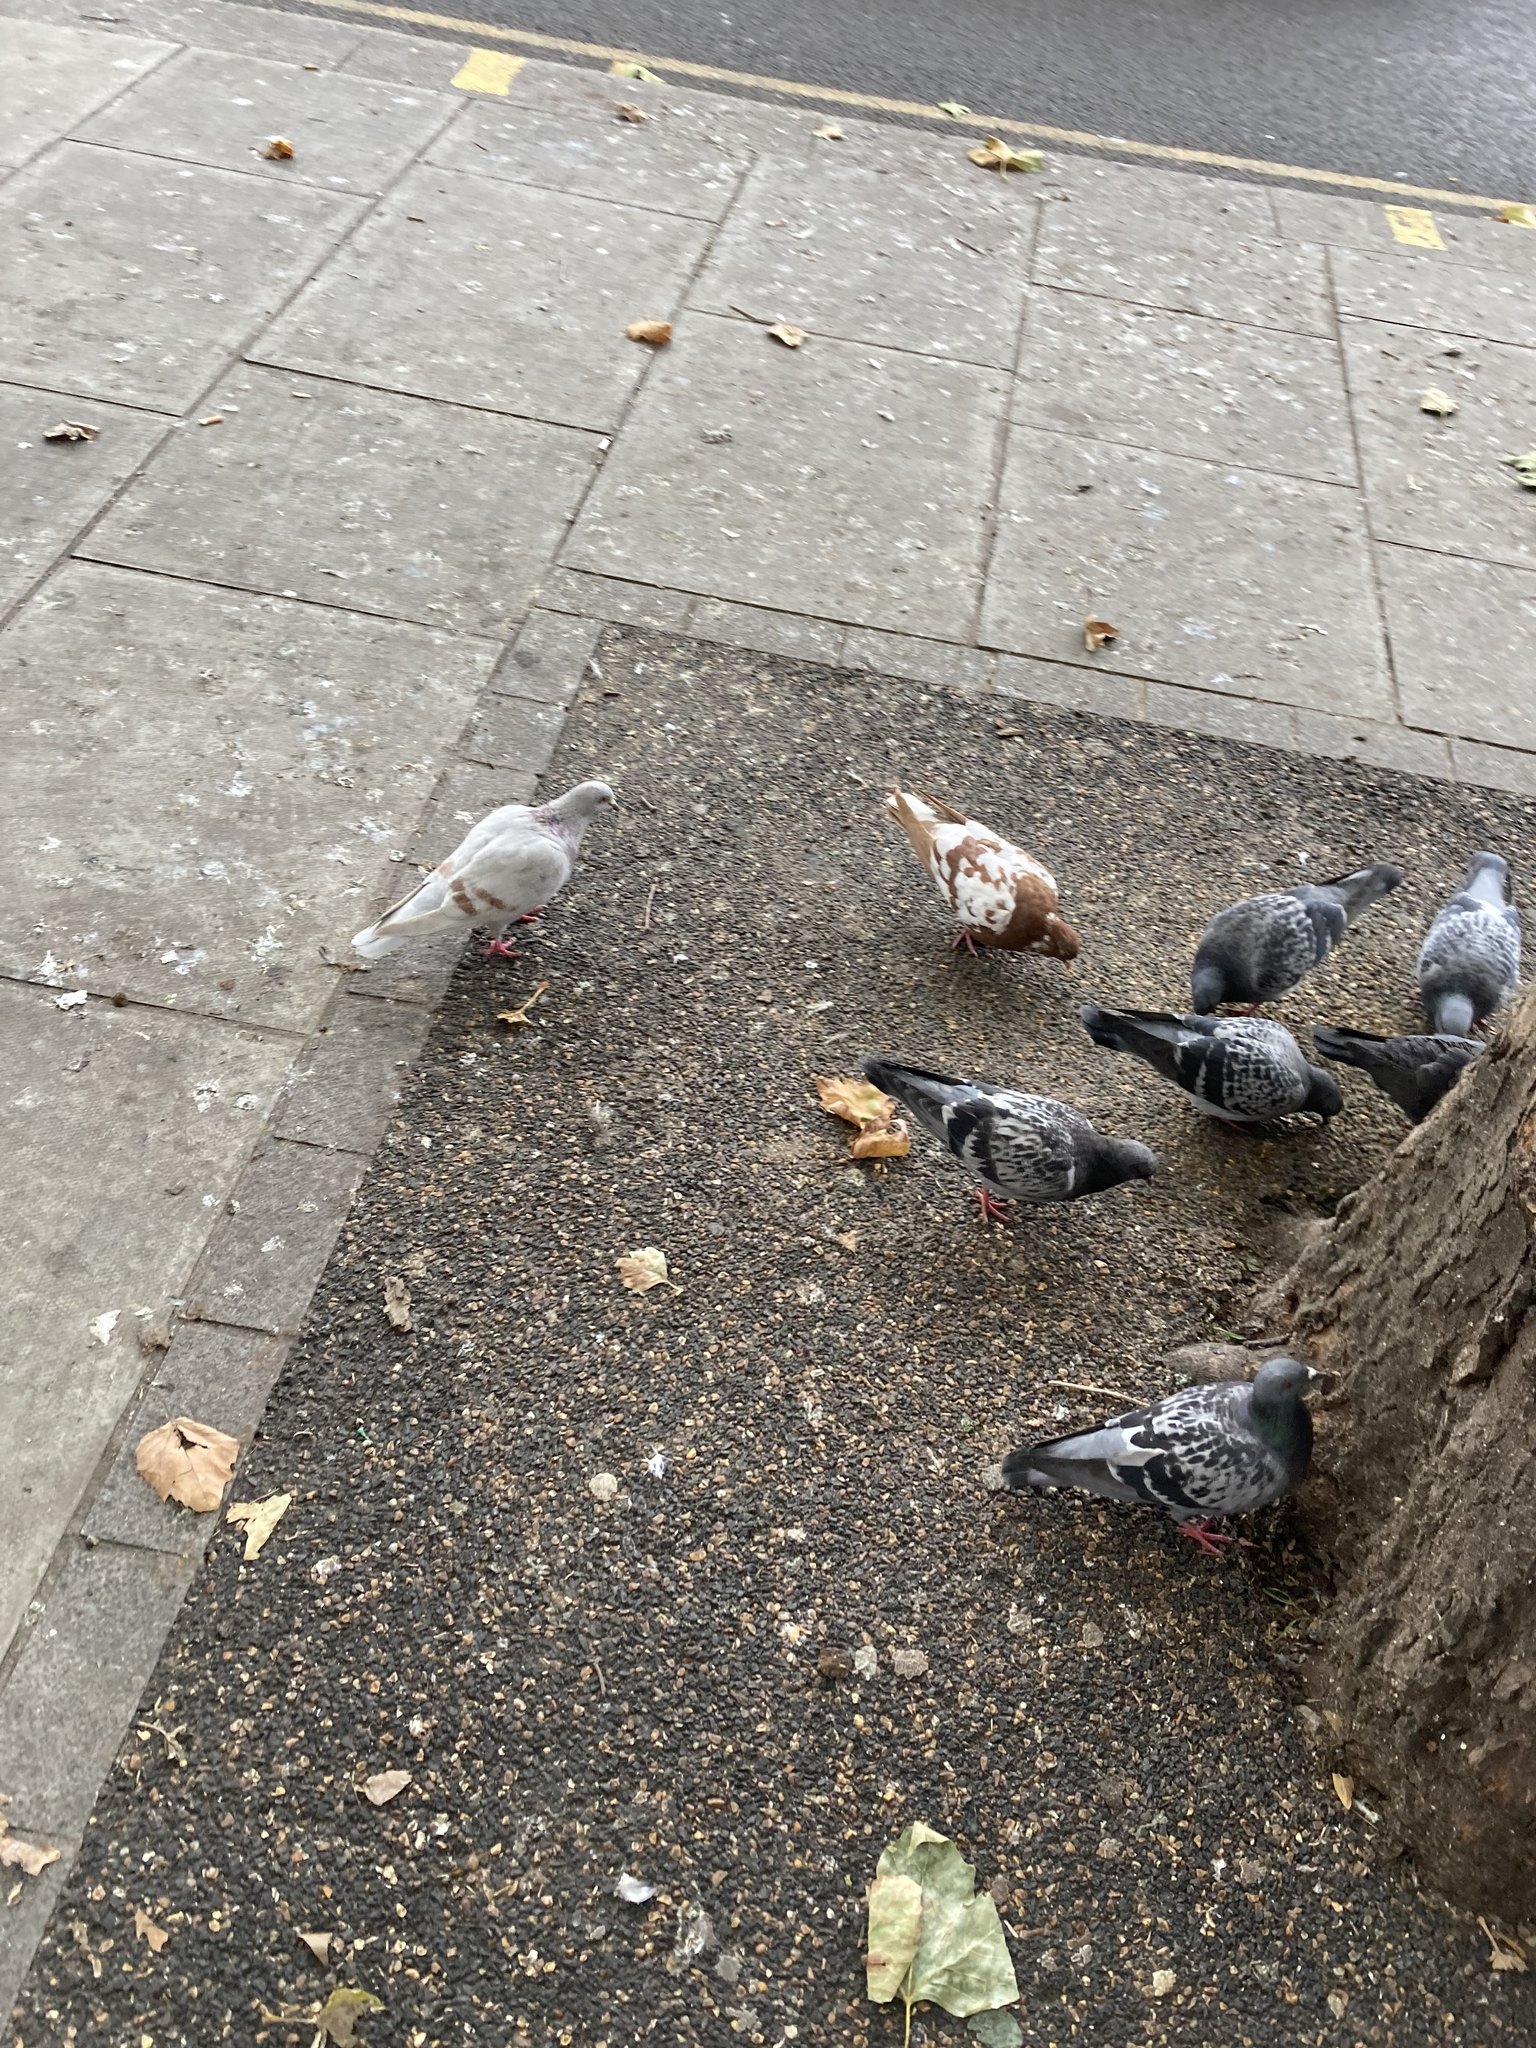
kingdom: Animalia
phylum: Chordata
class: Aves
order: Columbiformes
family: Columbidae
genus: Columba
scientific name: Columba livia
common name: Rock pigeon
